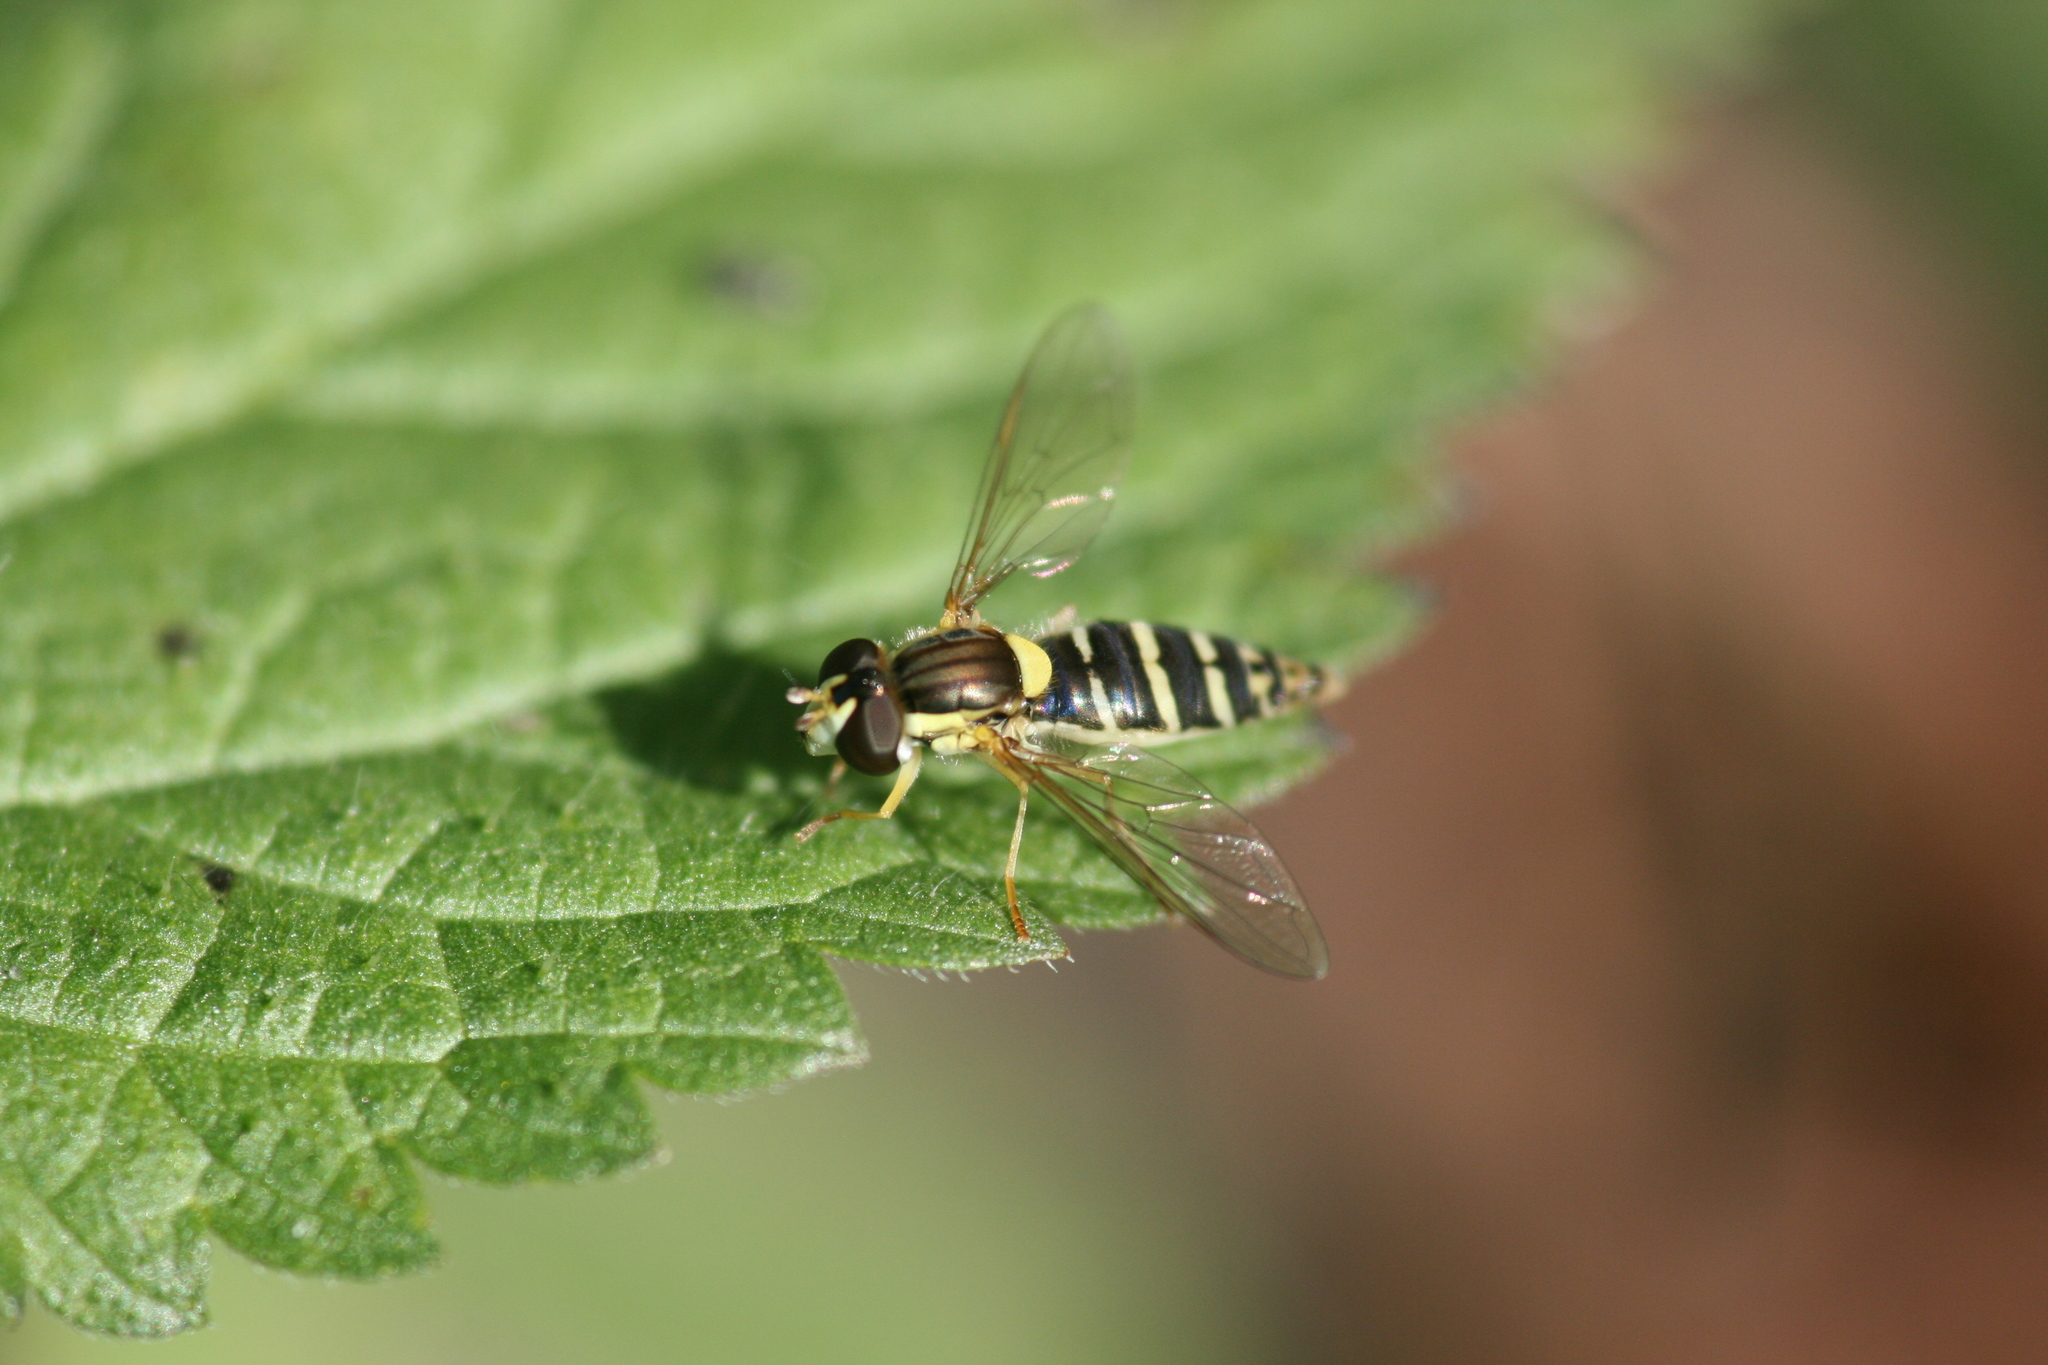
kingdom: Animalia
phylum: Arthropoda
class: Insecta
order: Diptera
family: Syrphidae
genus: Sphaerophoria
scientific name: Sphaerophoria
